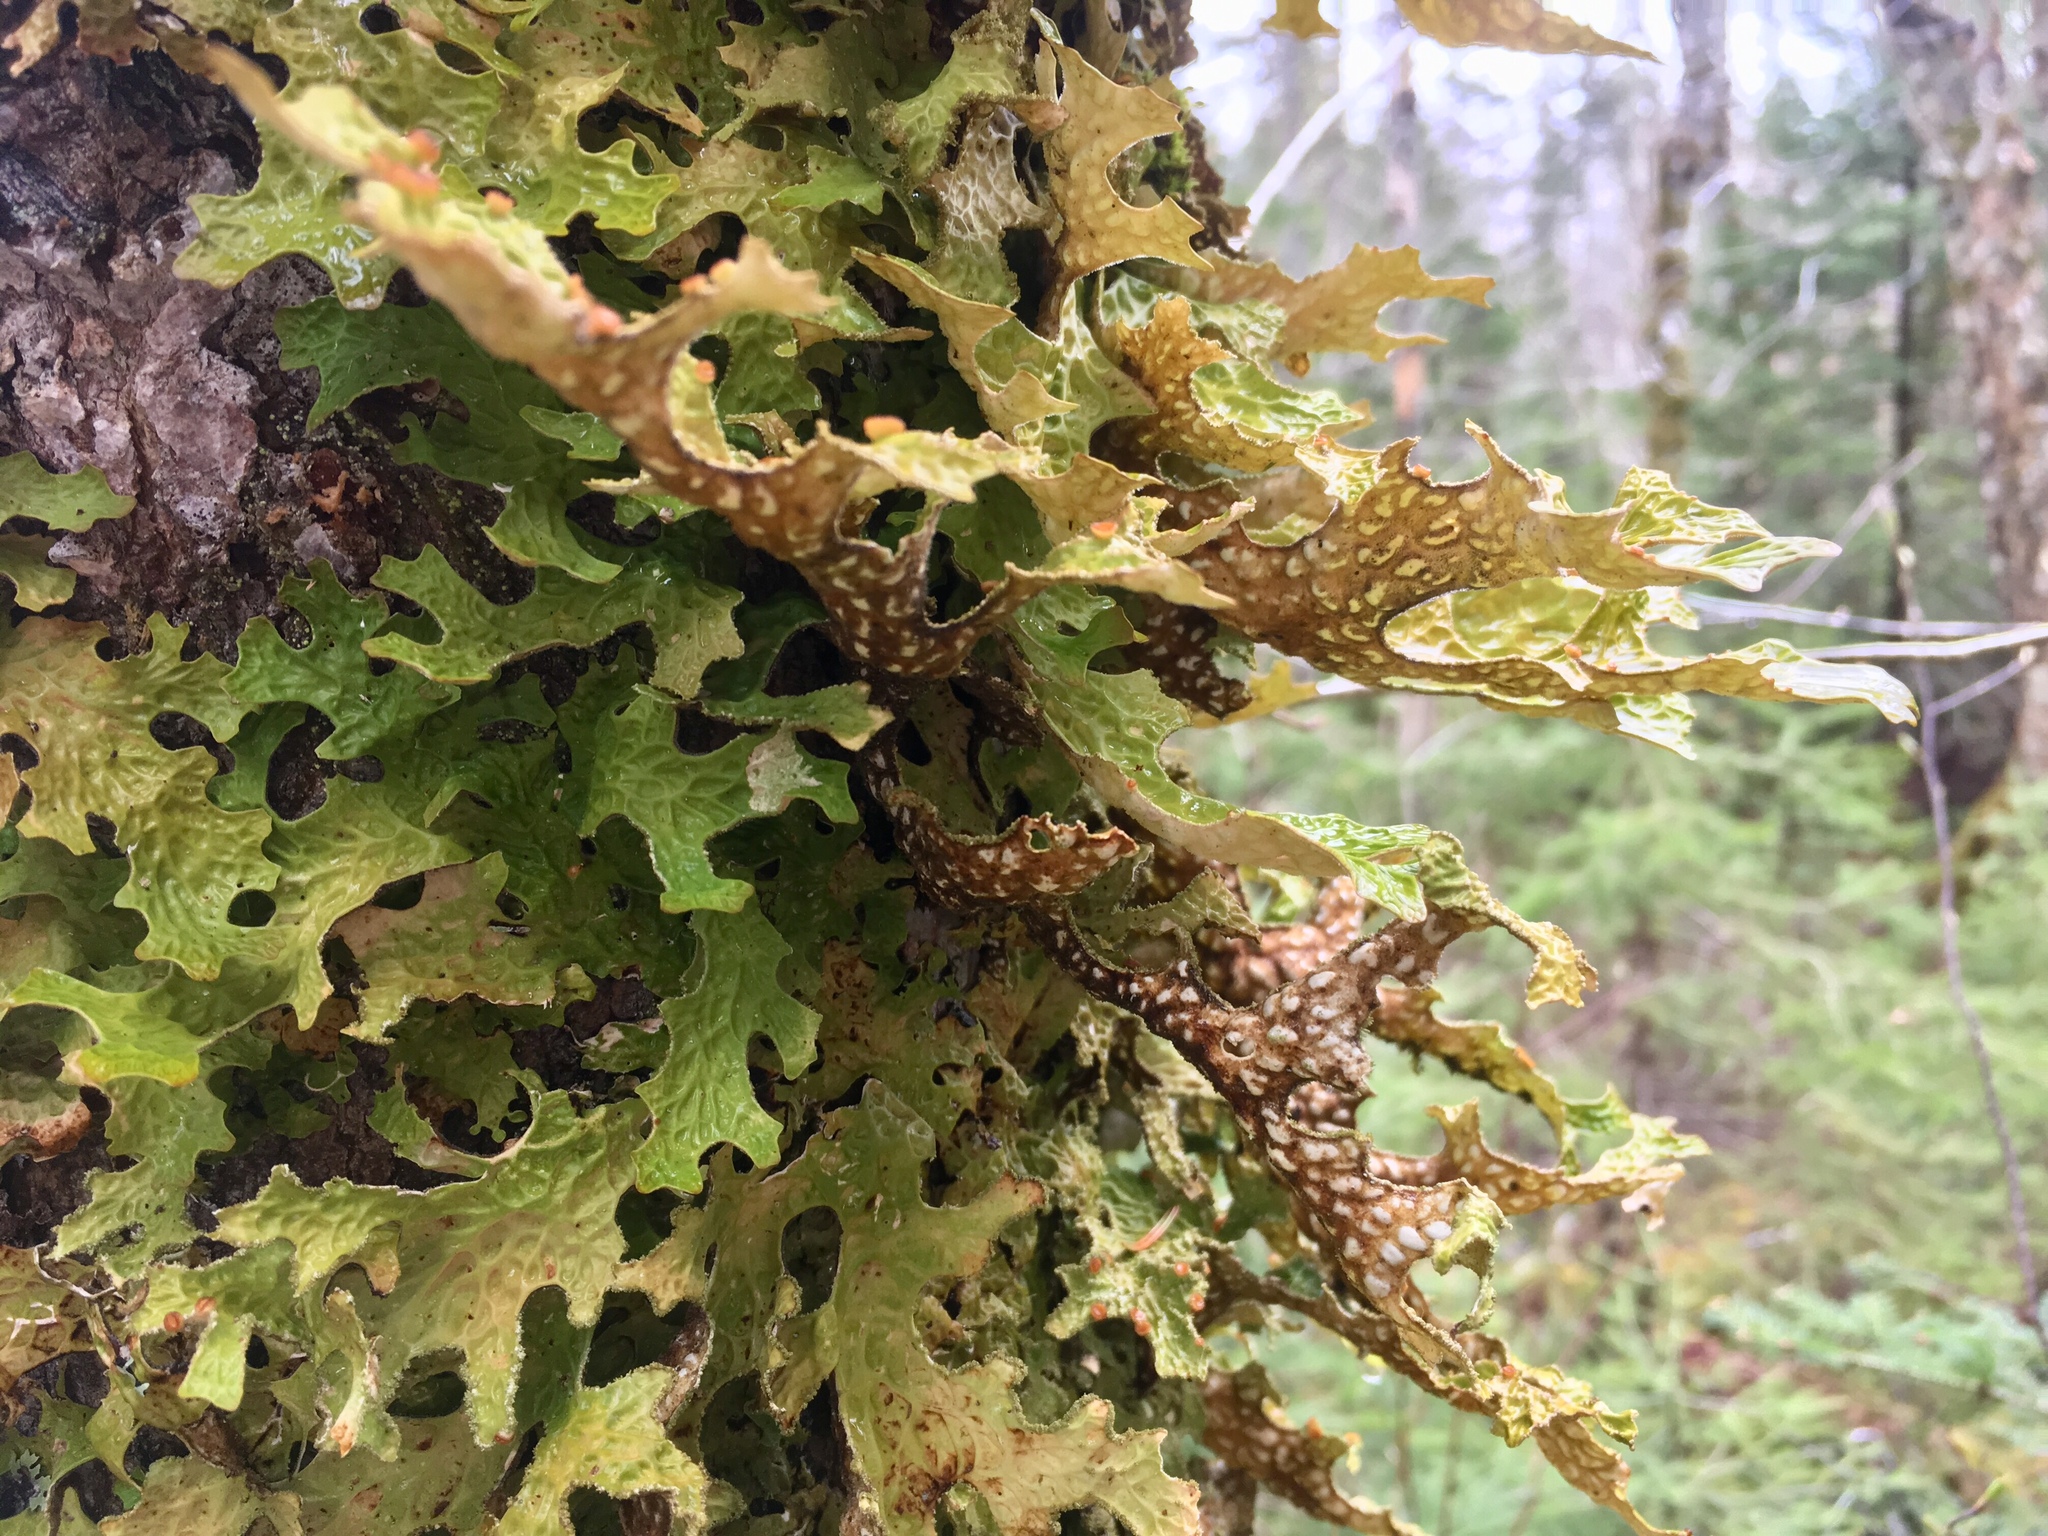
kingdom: Fungi
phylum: Ascomycota
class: Lecanoromycetes
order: Peltigerales
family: Lobariaceae
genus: Lobaria
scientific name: Lobaria pulmonaria
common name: Lungwort
